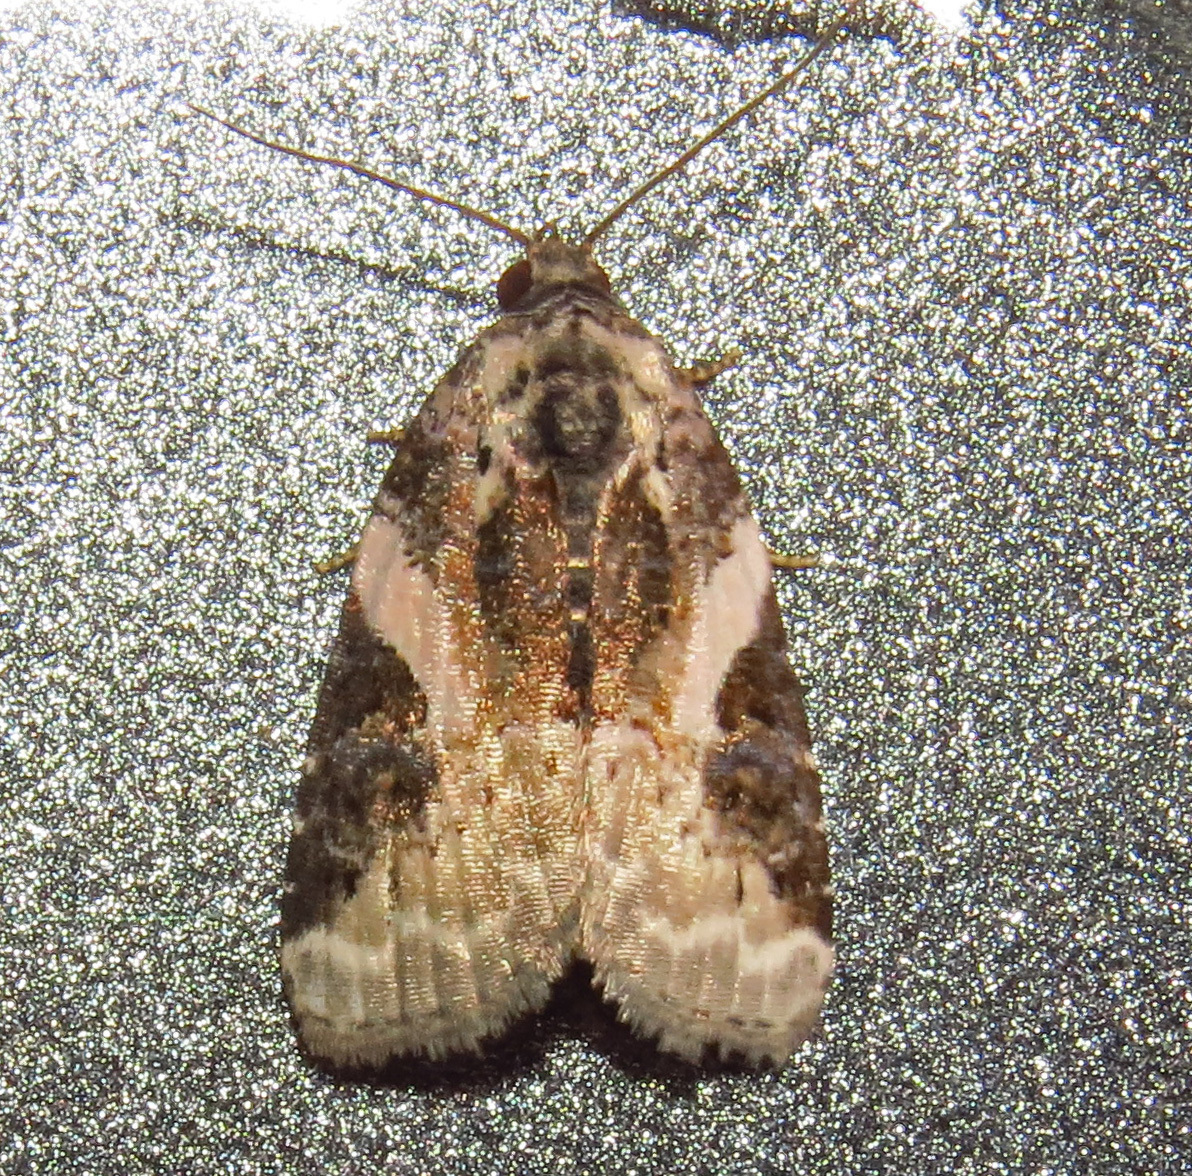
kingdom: Animalia
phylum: Arthropoda
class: Insecta
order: Lepidoptera
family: Noctuidae
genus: Pseudeustrotia
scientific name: Pseudeustrotia carneola
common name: Pink-barred lithacodia moth
